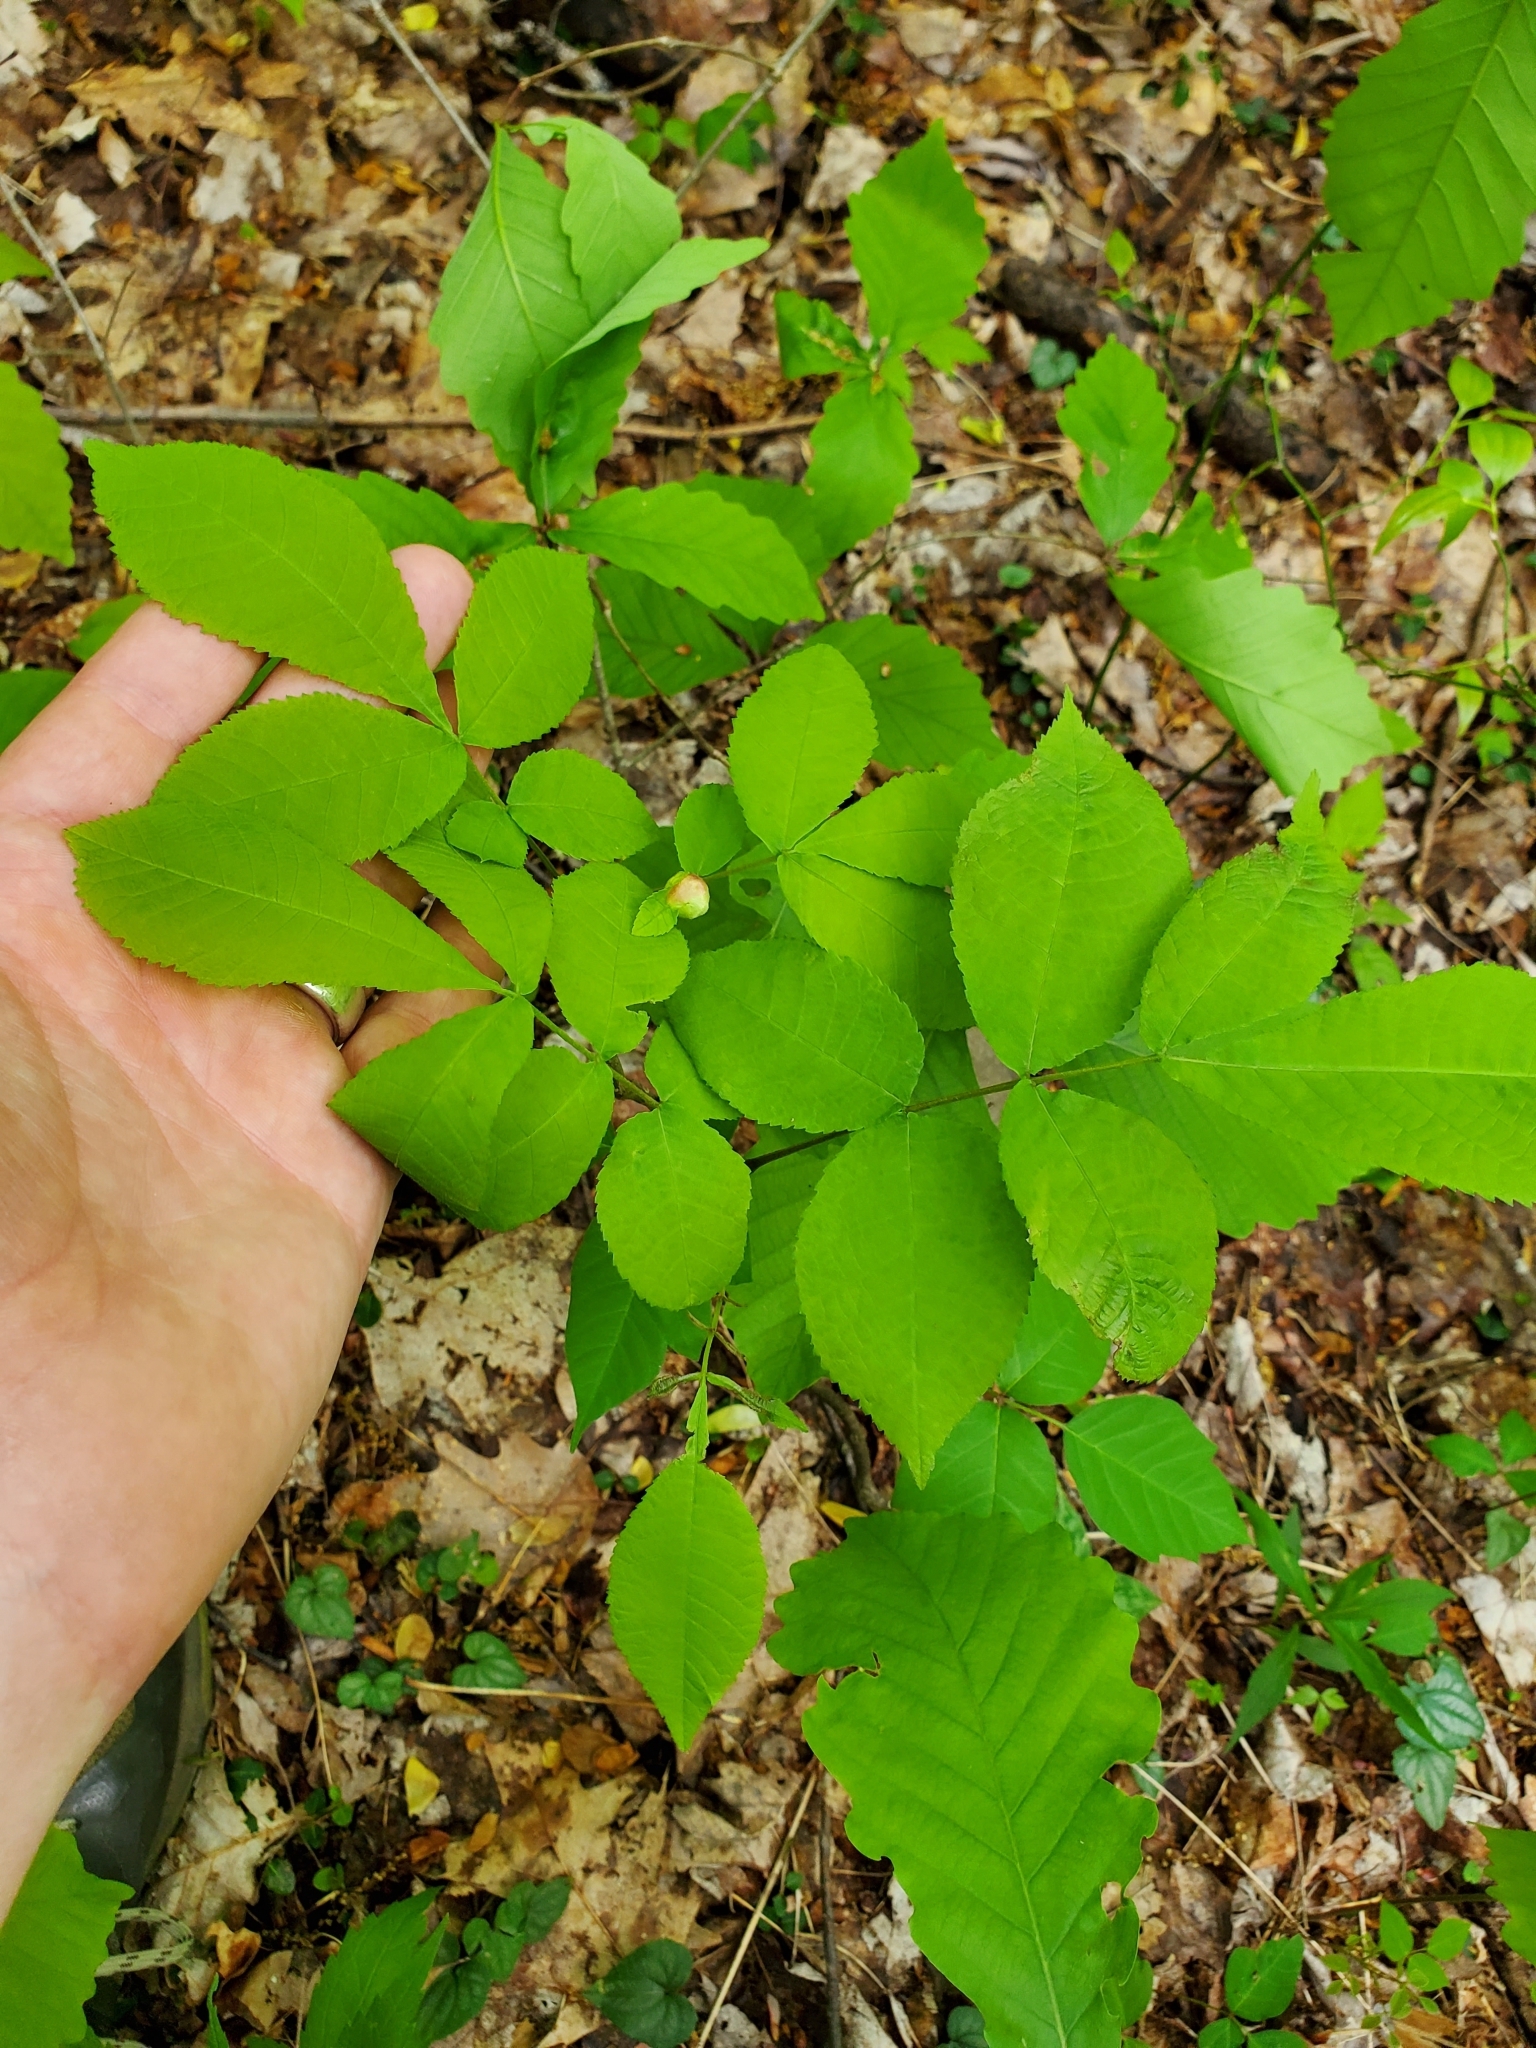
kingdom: Animalia
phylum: Arthropoda
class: Insecta
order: Hemiptera
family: Phylloxeridae
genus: Phylloxera
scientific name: Phylloxera
